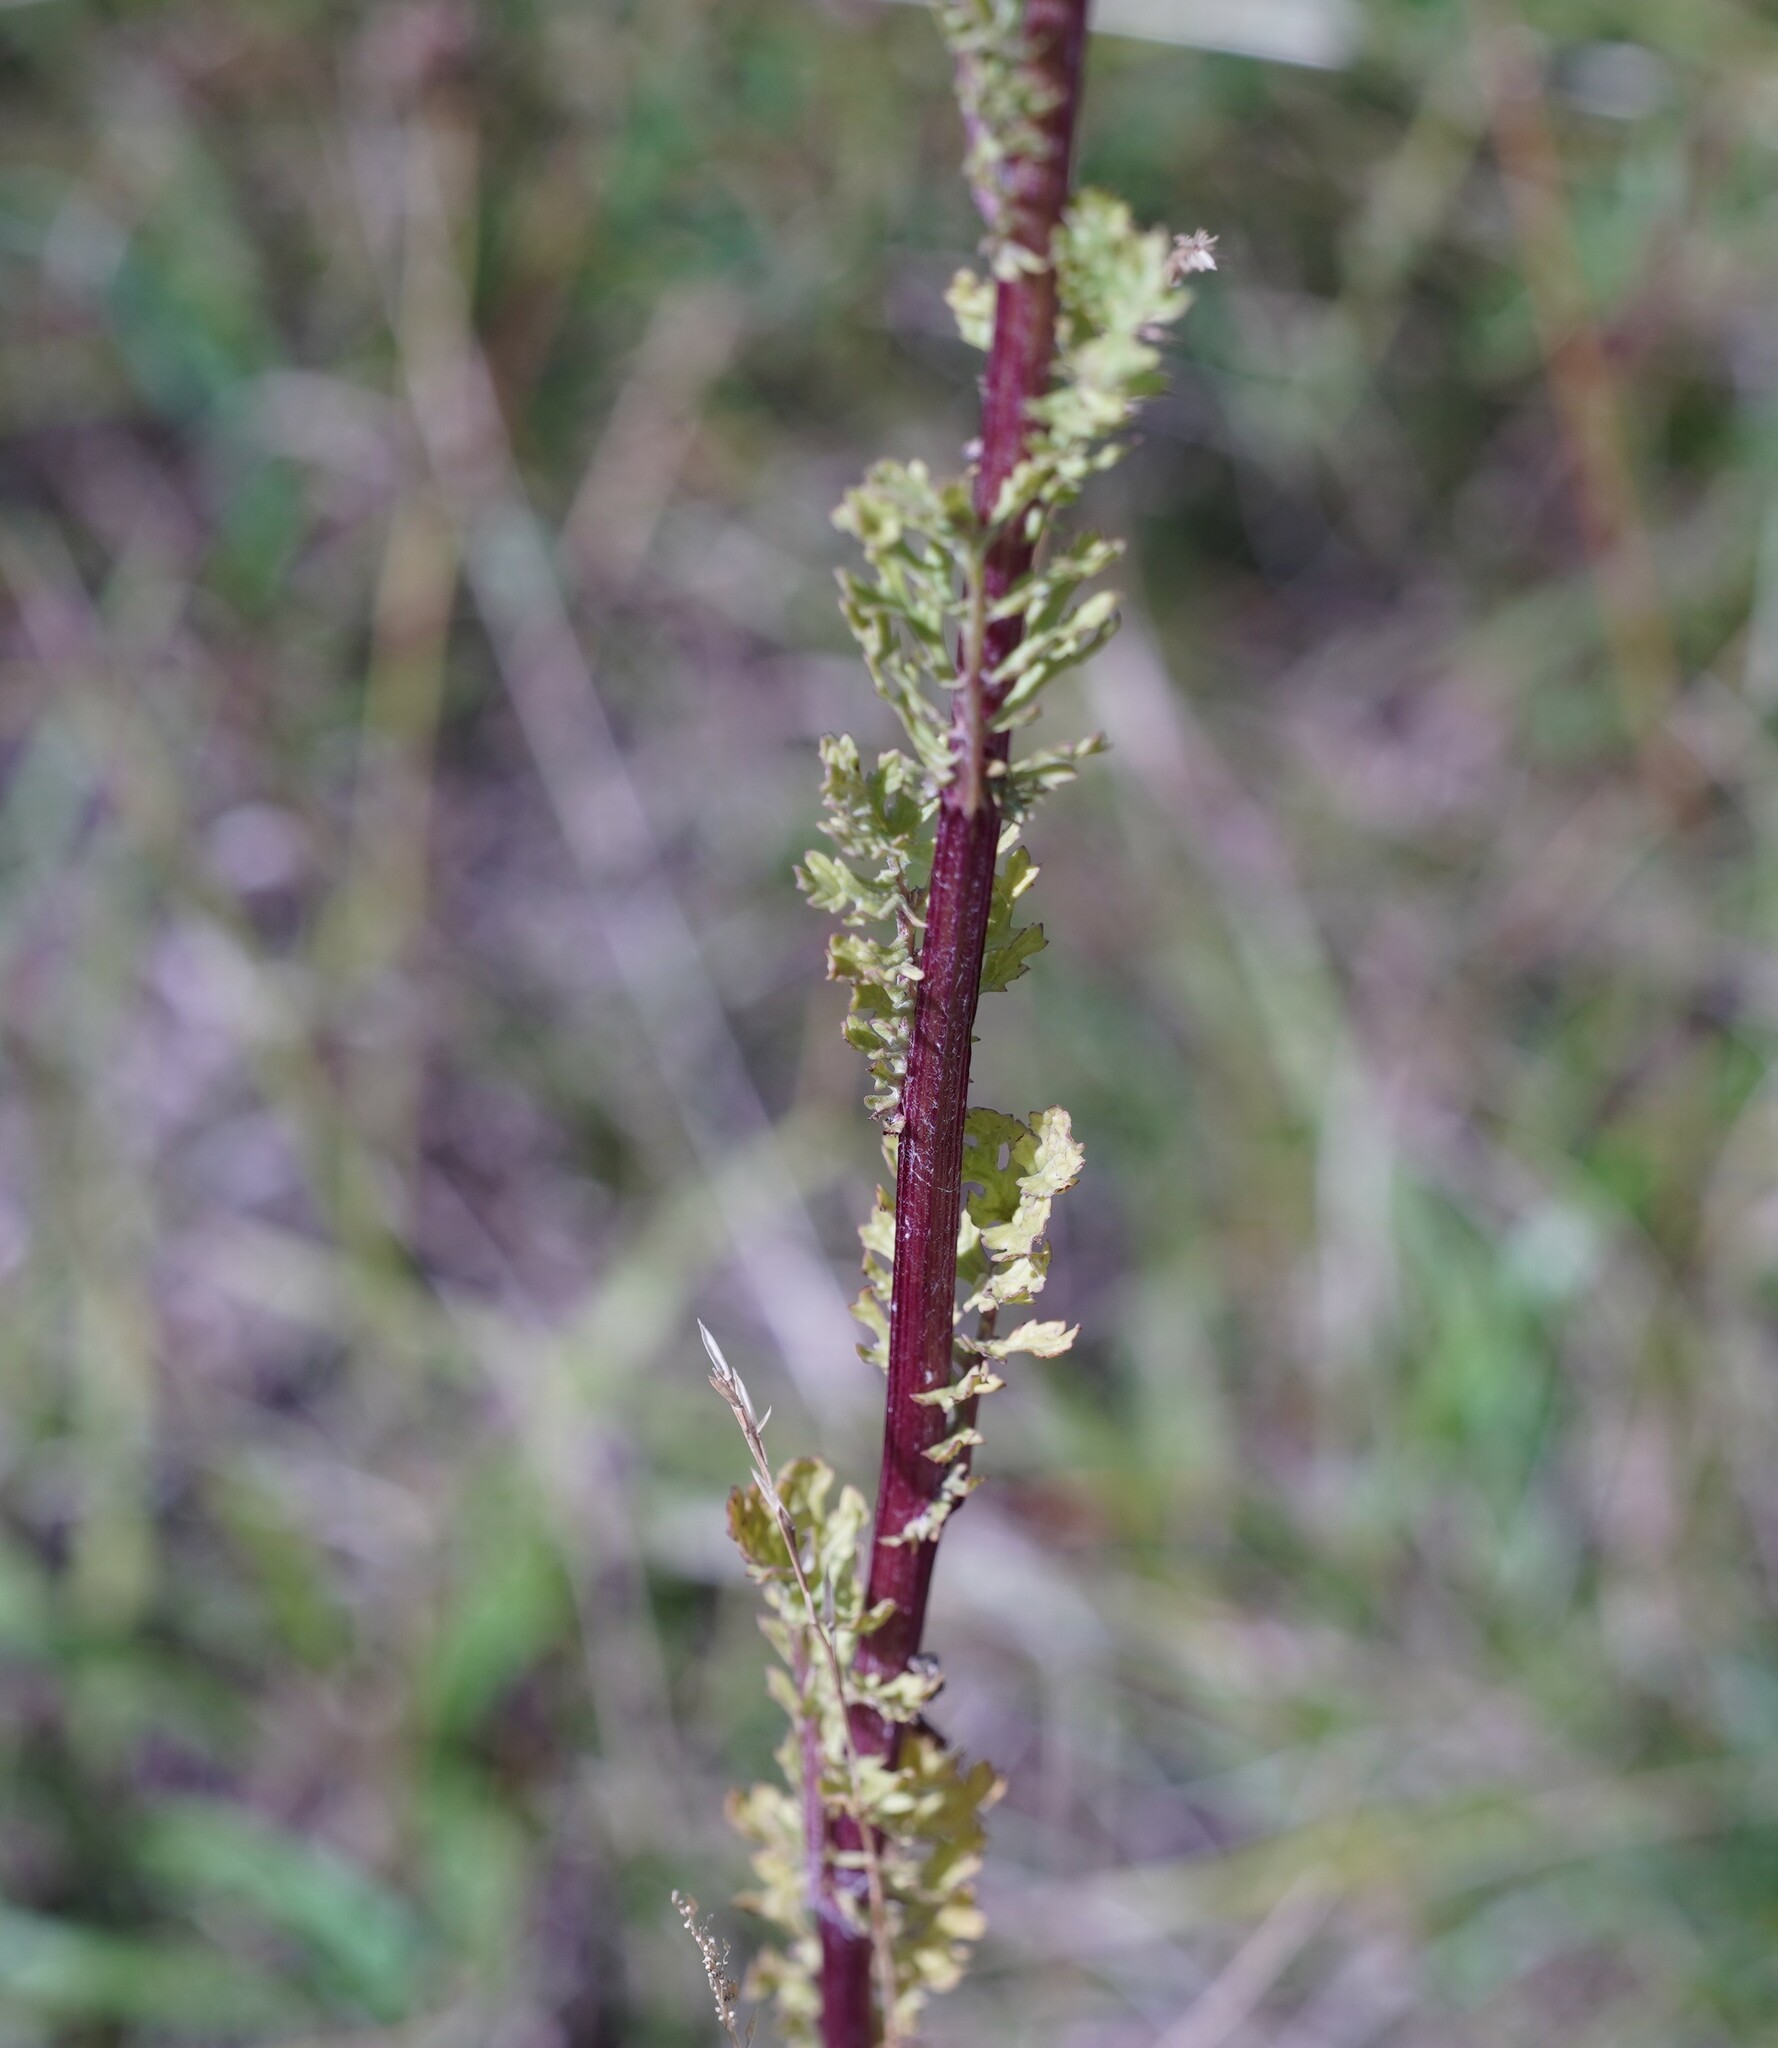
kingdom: Plantae
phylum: Tracheophyta
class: Magnoliopsida
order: Asterales
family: Asteraceae
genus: Jacobaea
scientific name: Jacobaea vulgaris
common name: Stinking willie
